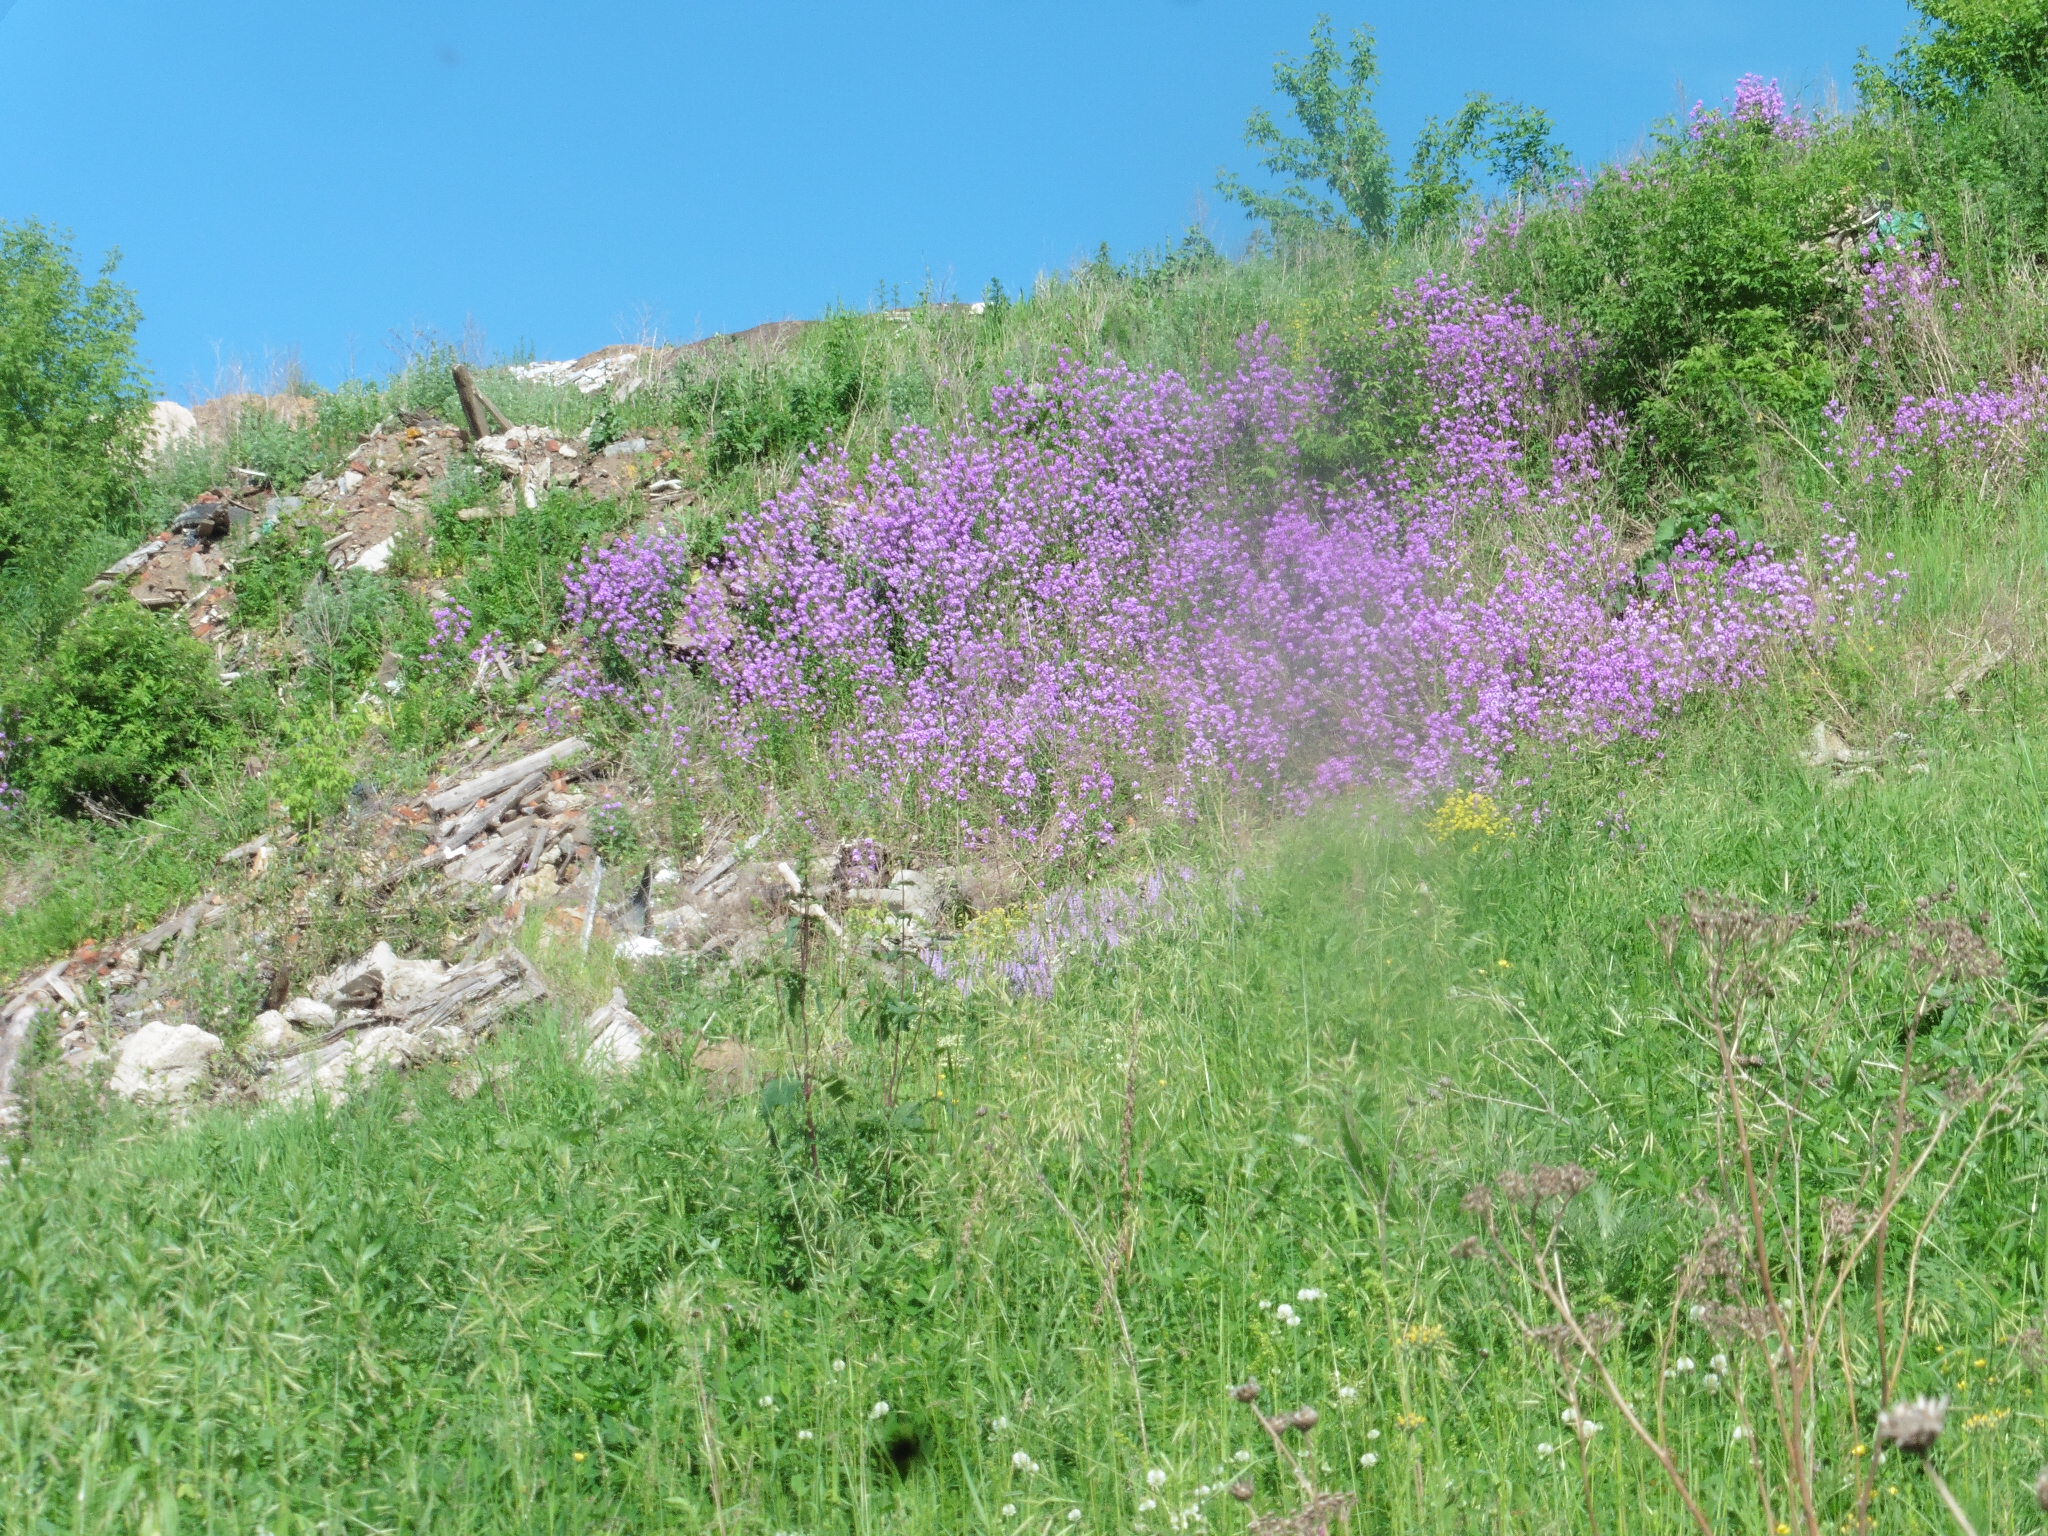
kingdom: Plantae
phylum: Tracheophyta
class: Magnoliopsida
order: Brassicales
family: Brassicaceae
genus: Hesperis
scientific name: Hesperis matronalis
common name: Dame's-violet
